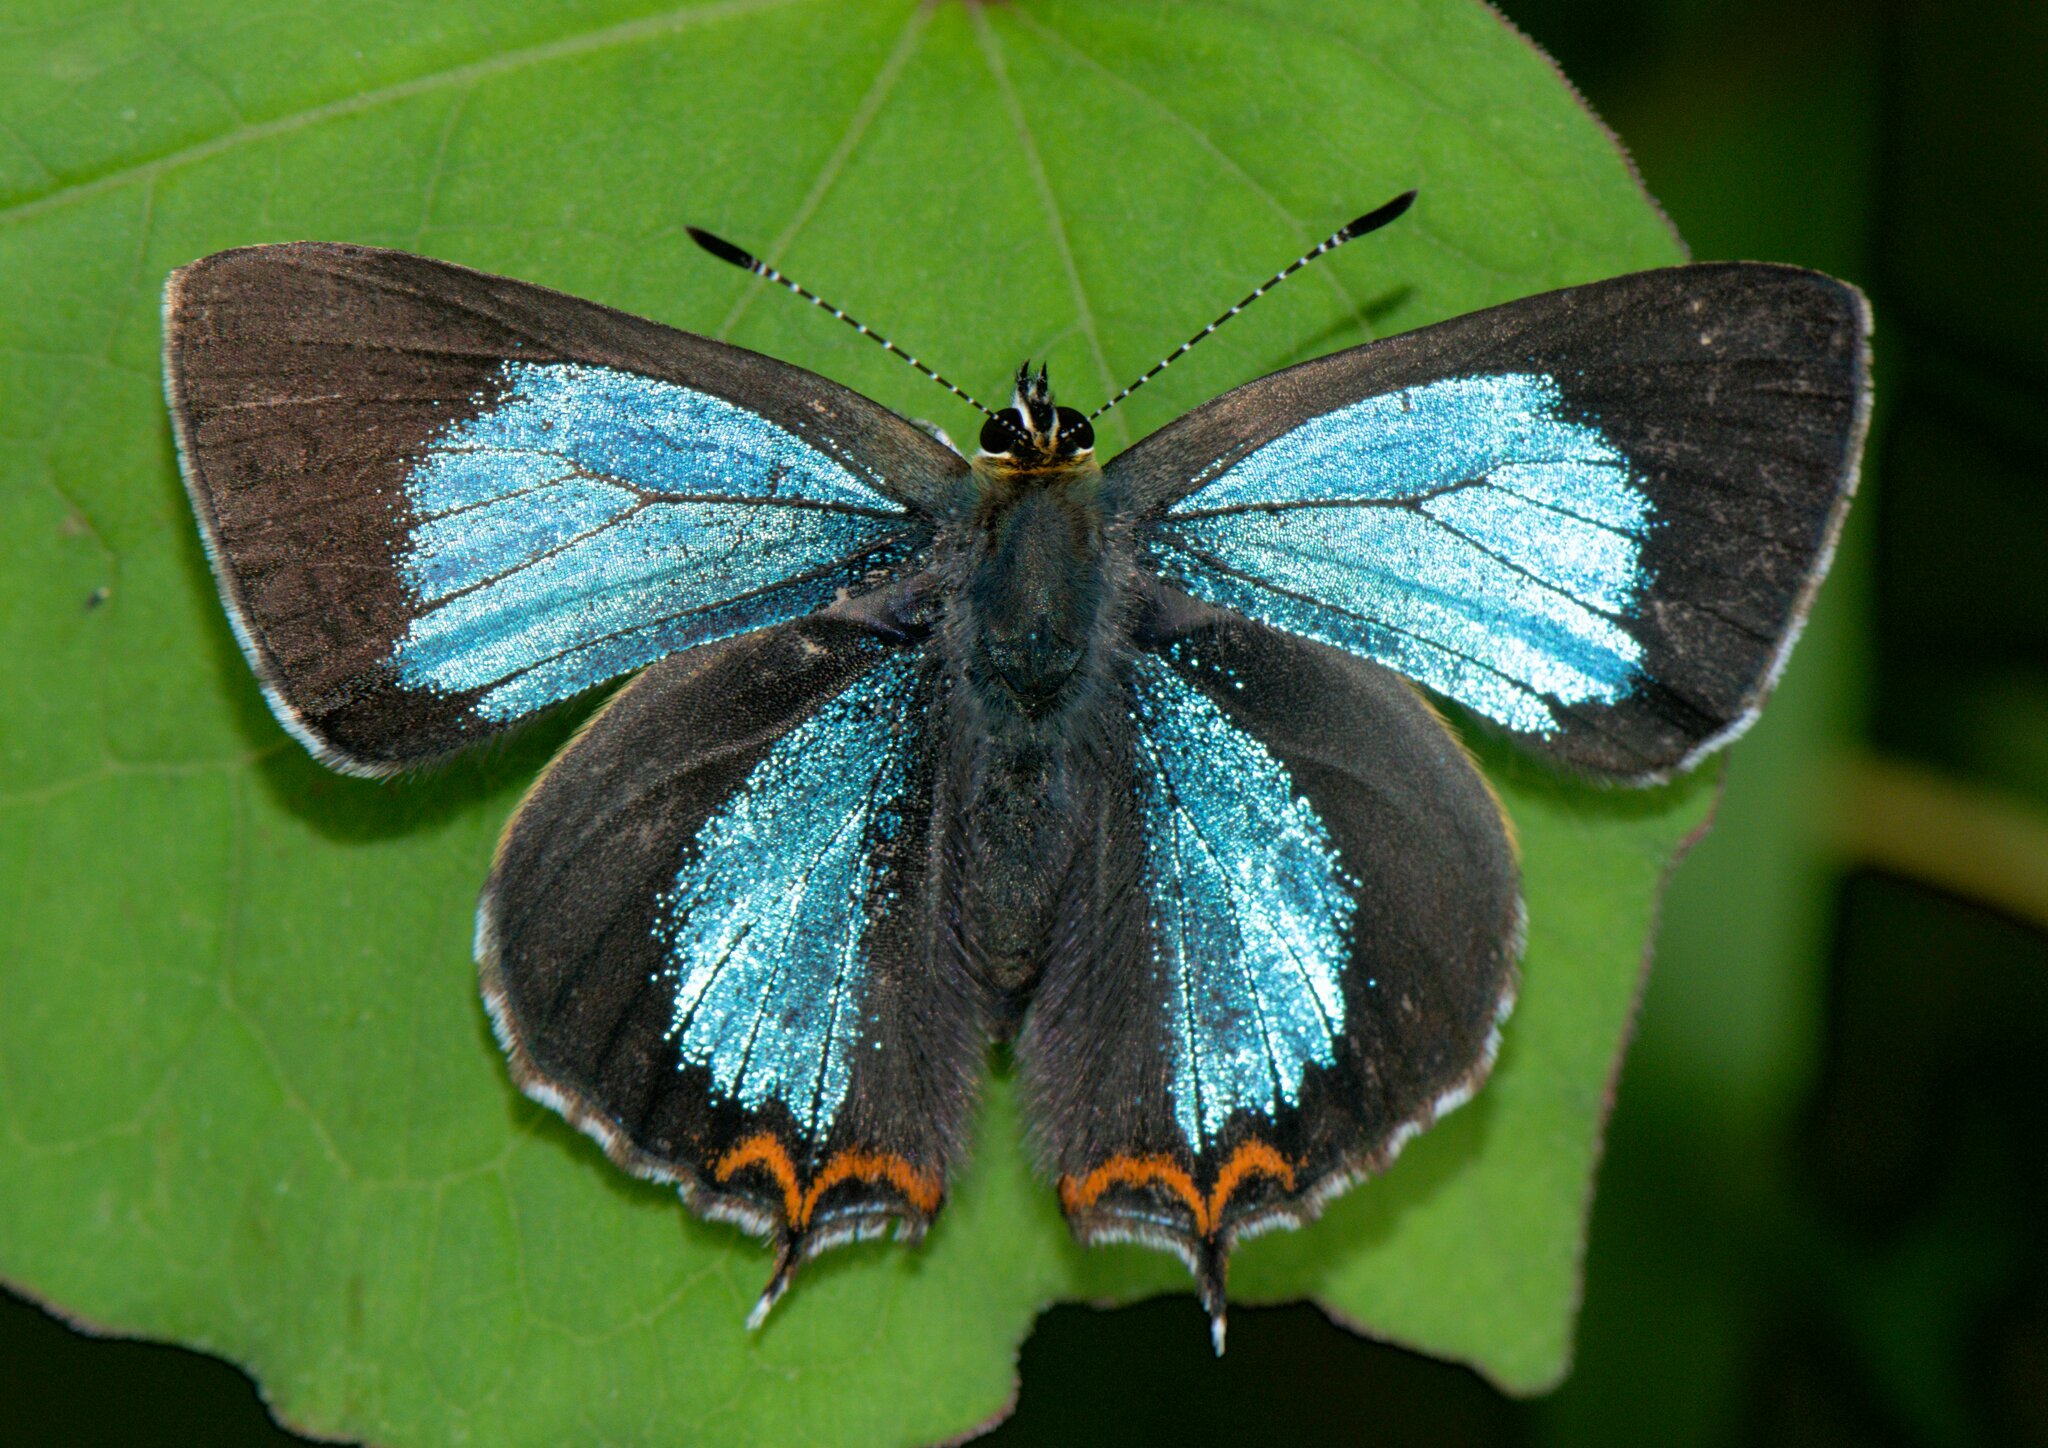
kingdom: Animalia
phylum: Arthropoda
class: Insecta
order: Lepidoptera
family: Lycaenidae
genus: Heliophorus
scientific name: Heliophorus
